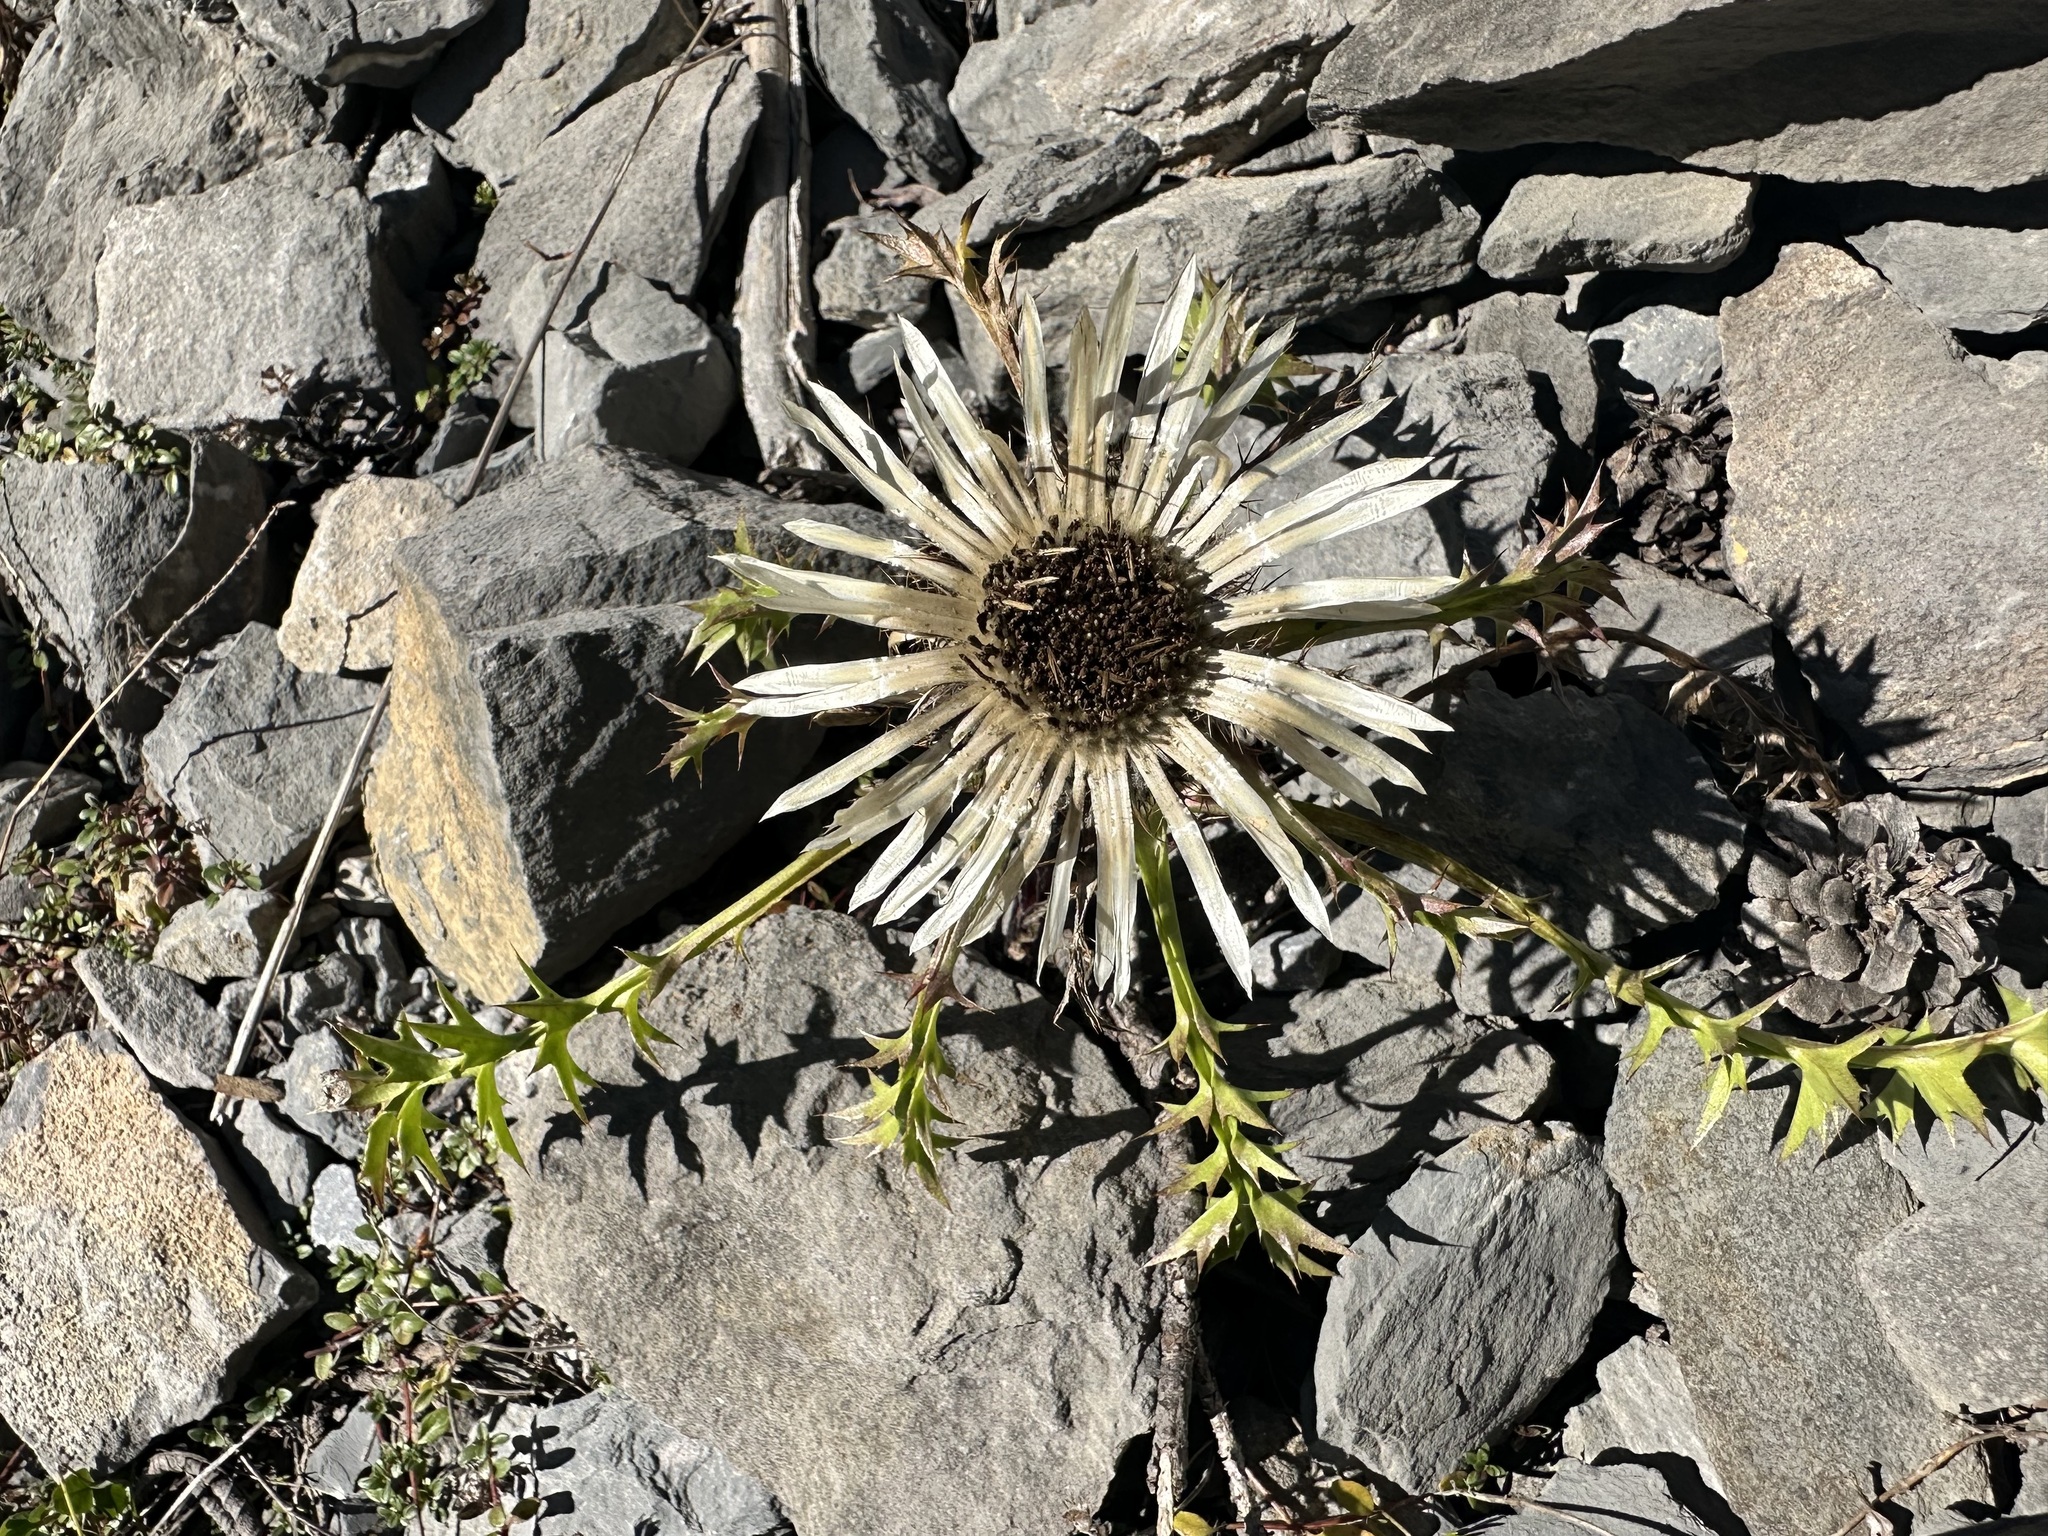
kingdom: Plantae
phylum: Tracheophyta
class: Magnoliopsida
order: Asterales
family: Asteraceae
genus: Carlina
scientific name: Carlina vulgaris
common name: Carline thistle
